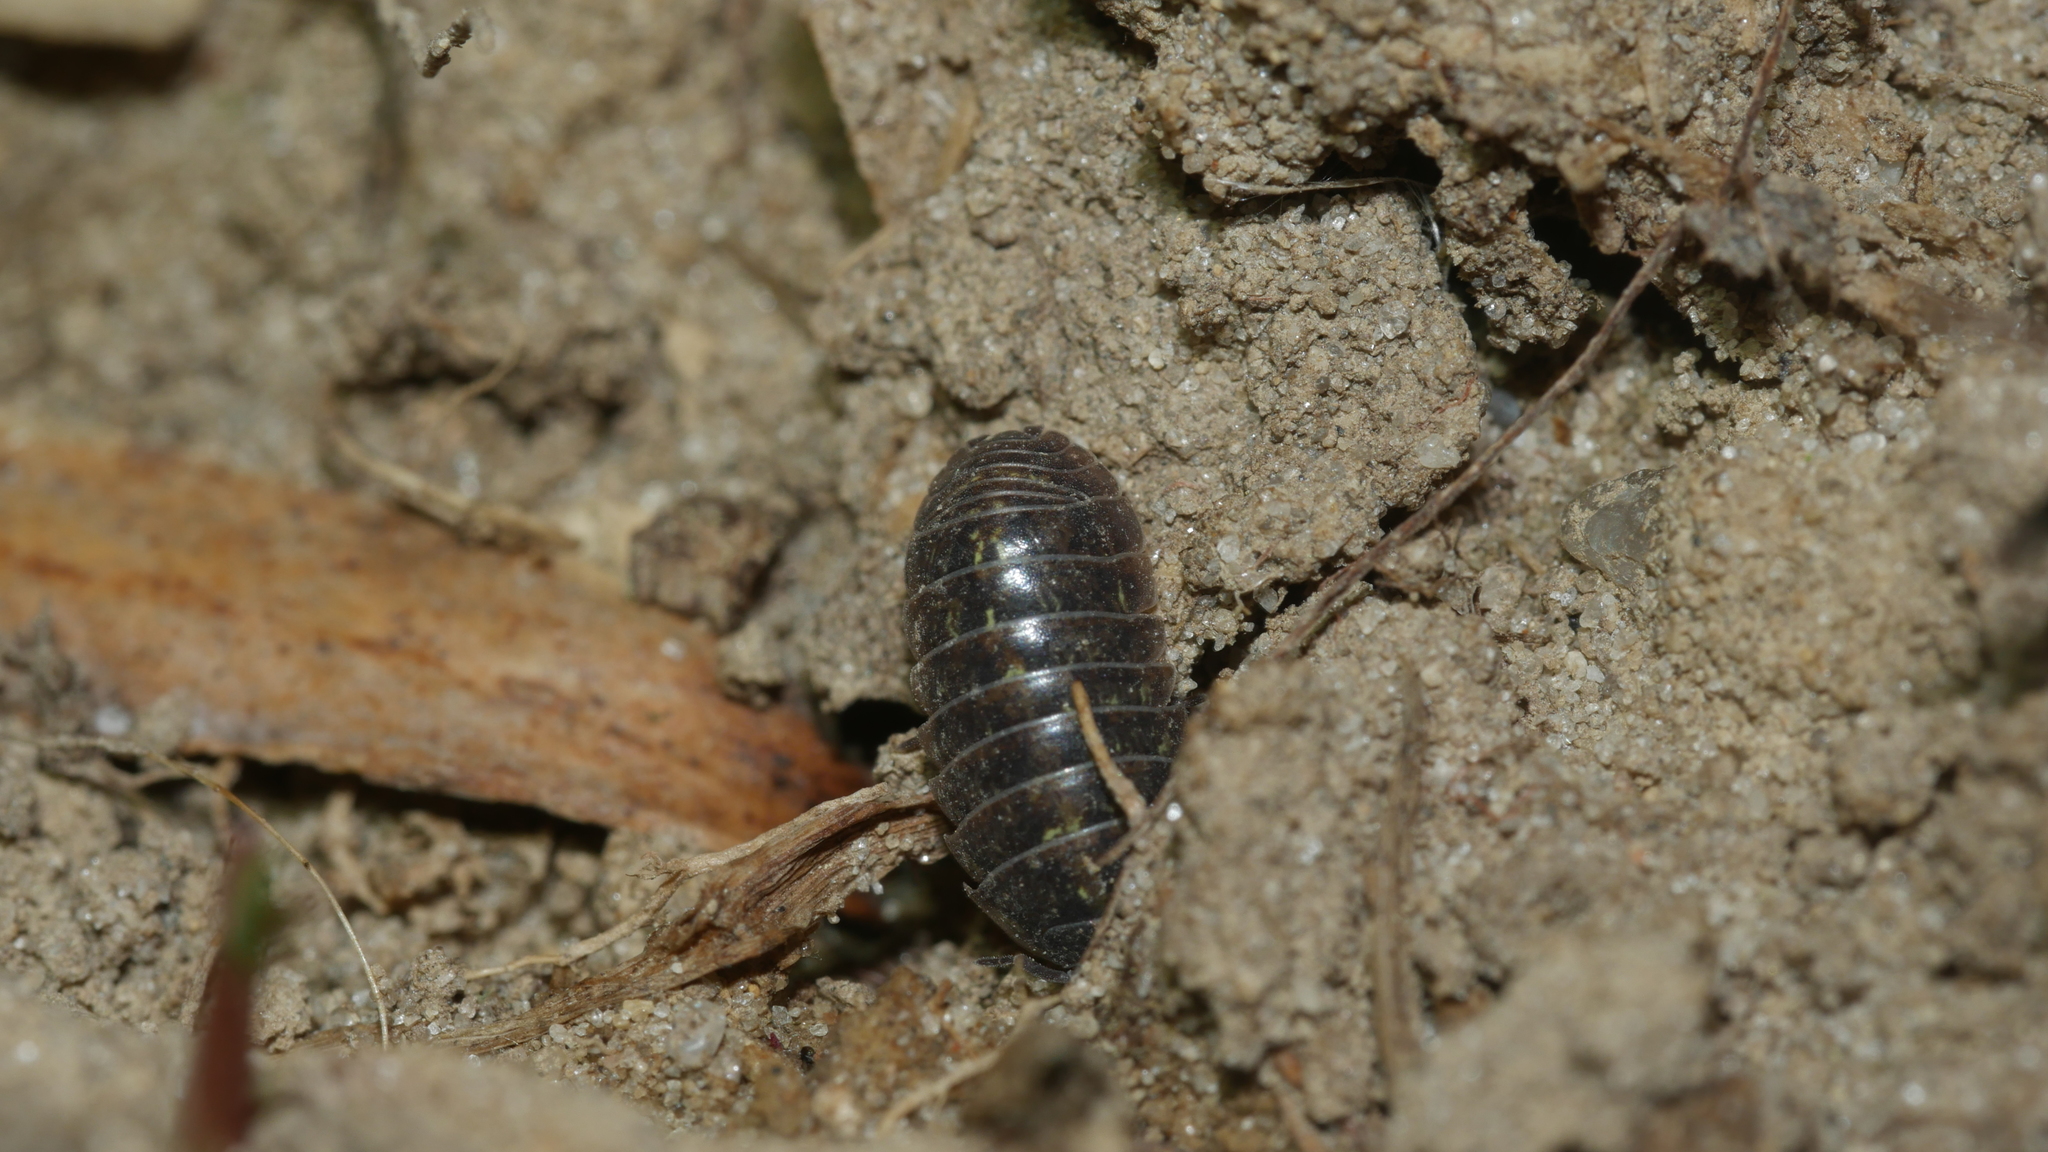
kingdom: Animalia
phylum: Arthropoda
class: Malacostraca
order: Isopoda
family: Armadillidiidae
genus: Armadillidium
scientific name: Armadillidium vulgare
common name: Common pill woodlouse
